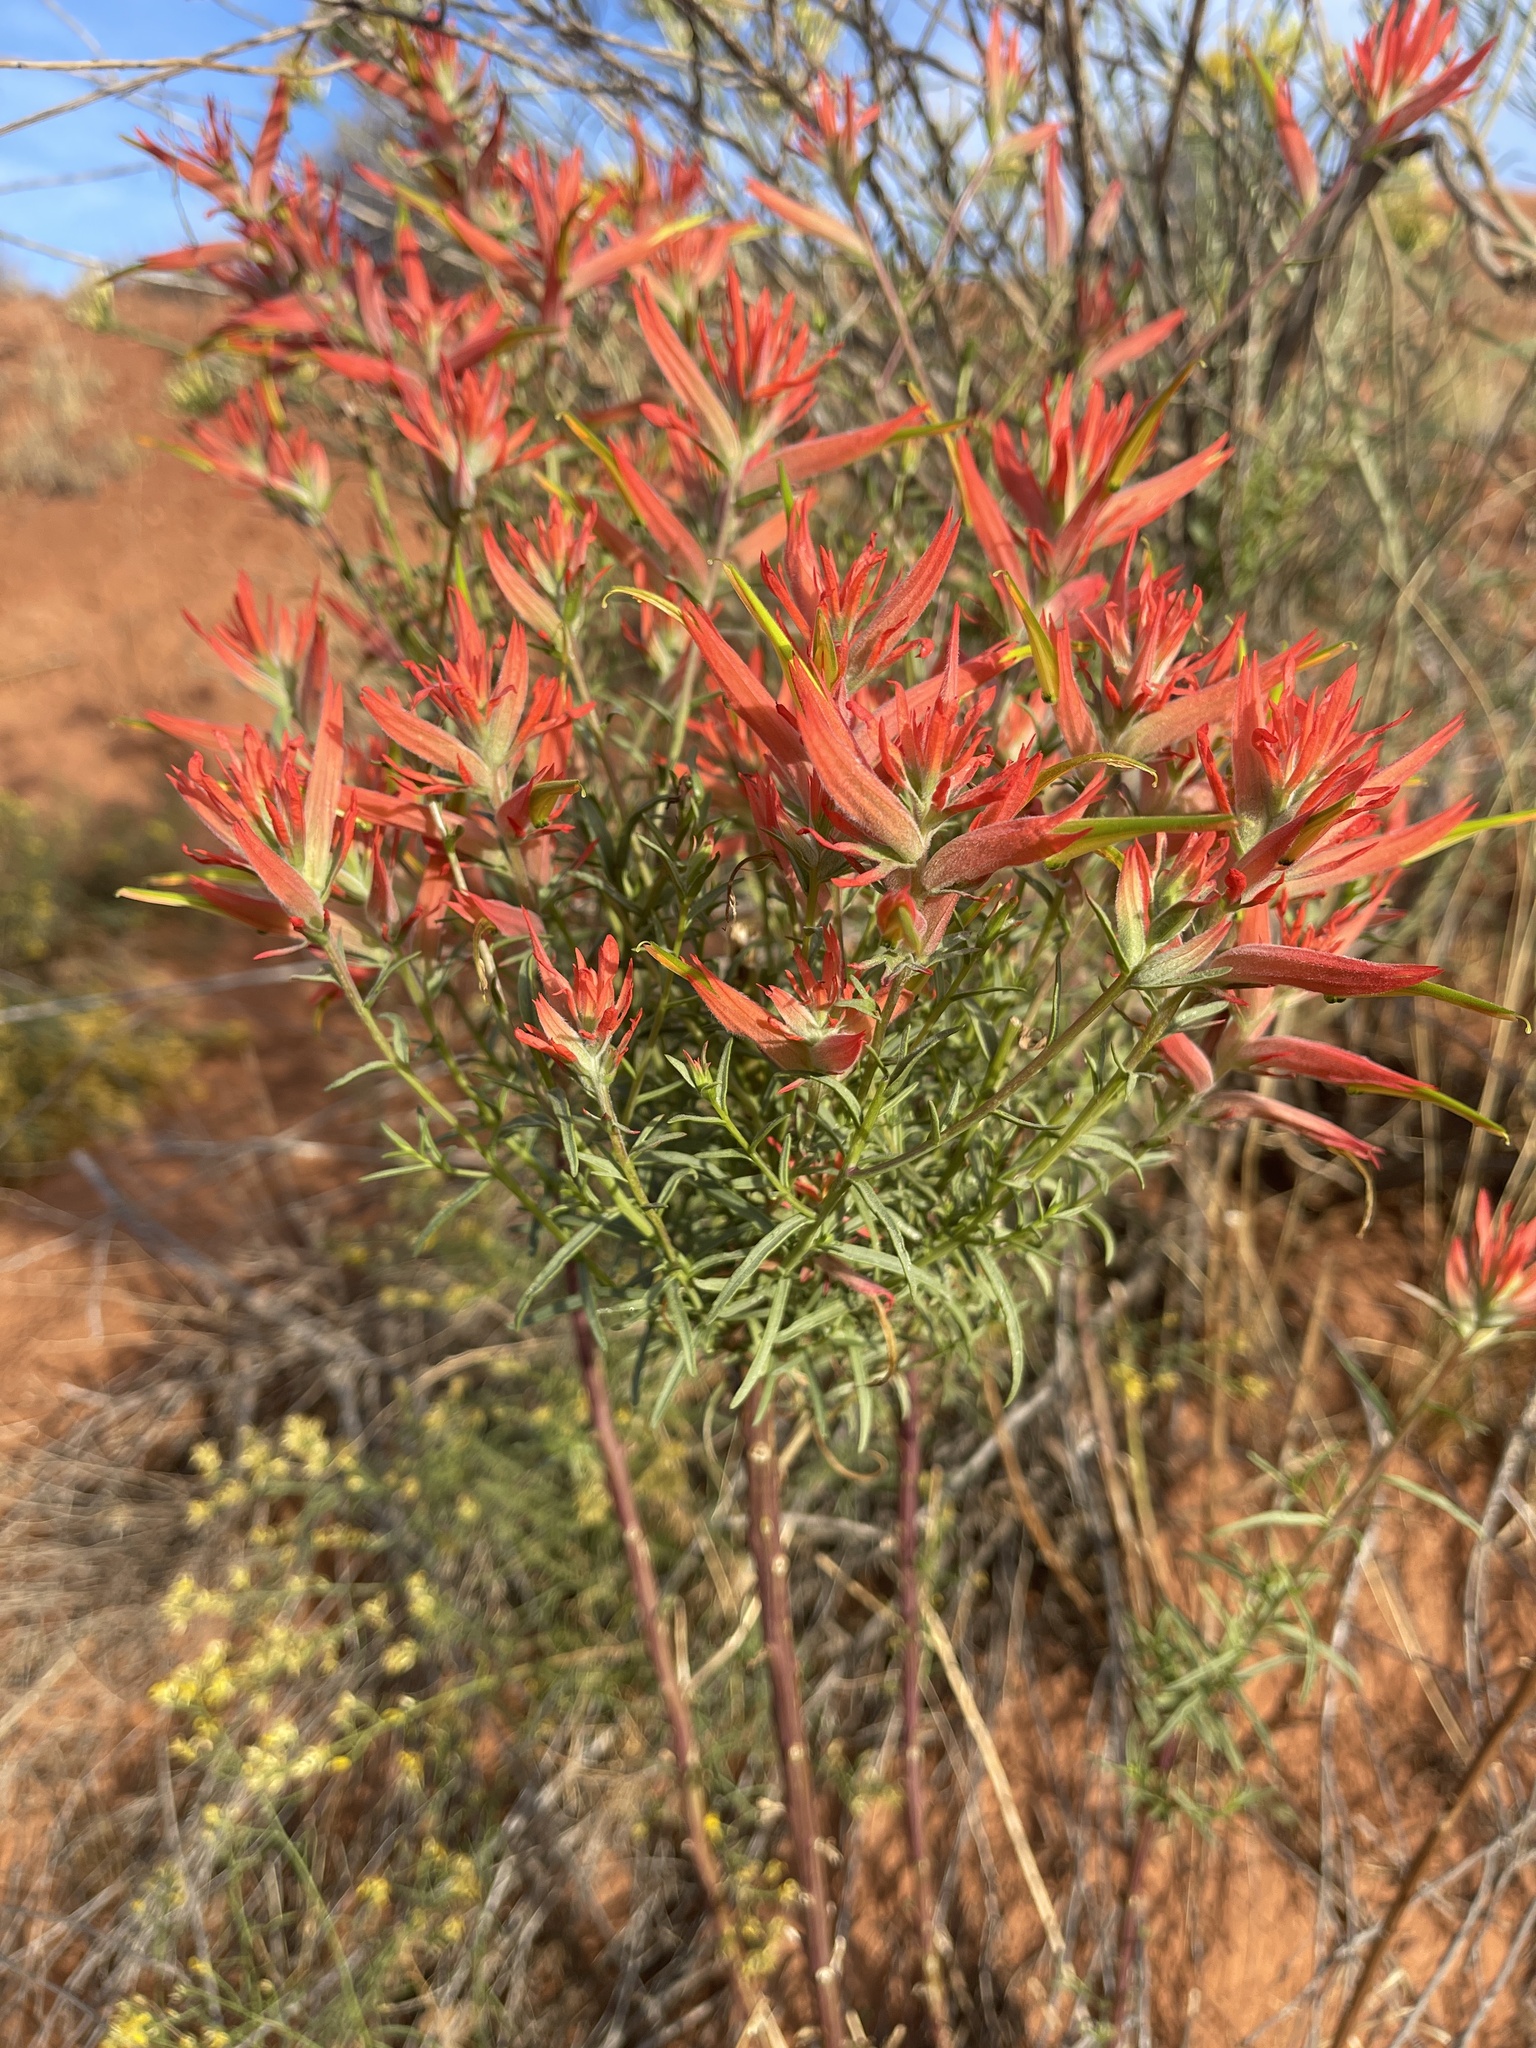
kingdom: Plantae
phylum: Tracheophyta
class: Magnoliopsida
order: Lamiales
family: Orobanchaceae
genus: Castilleja
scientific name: Castilleja linariifolia
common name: Wyoming paintbrush
